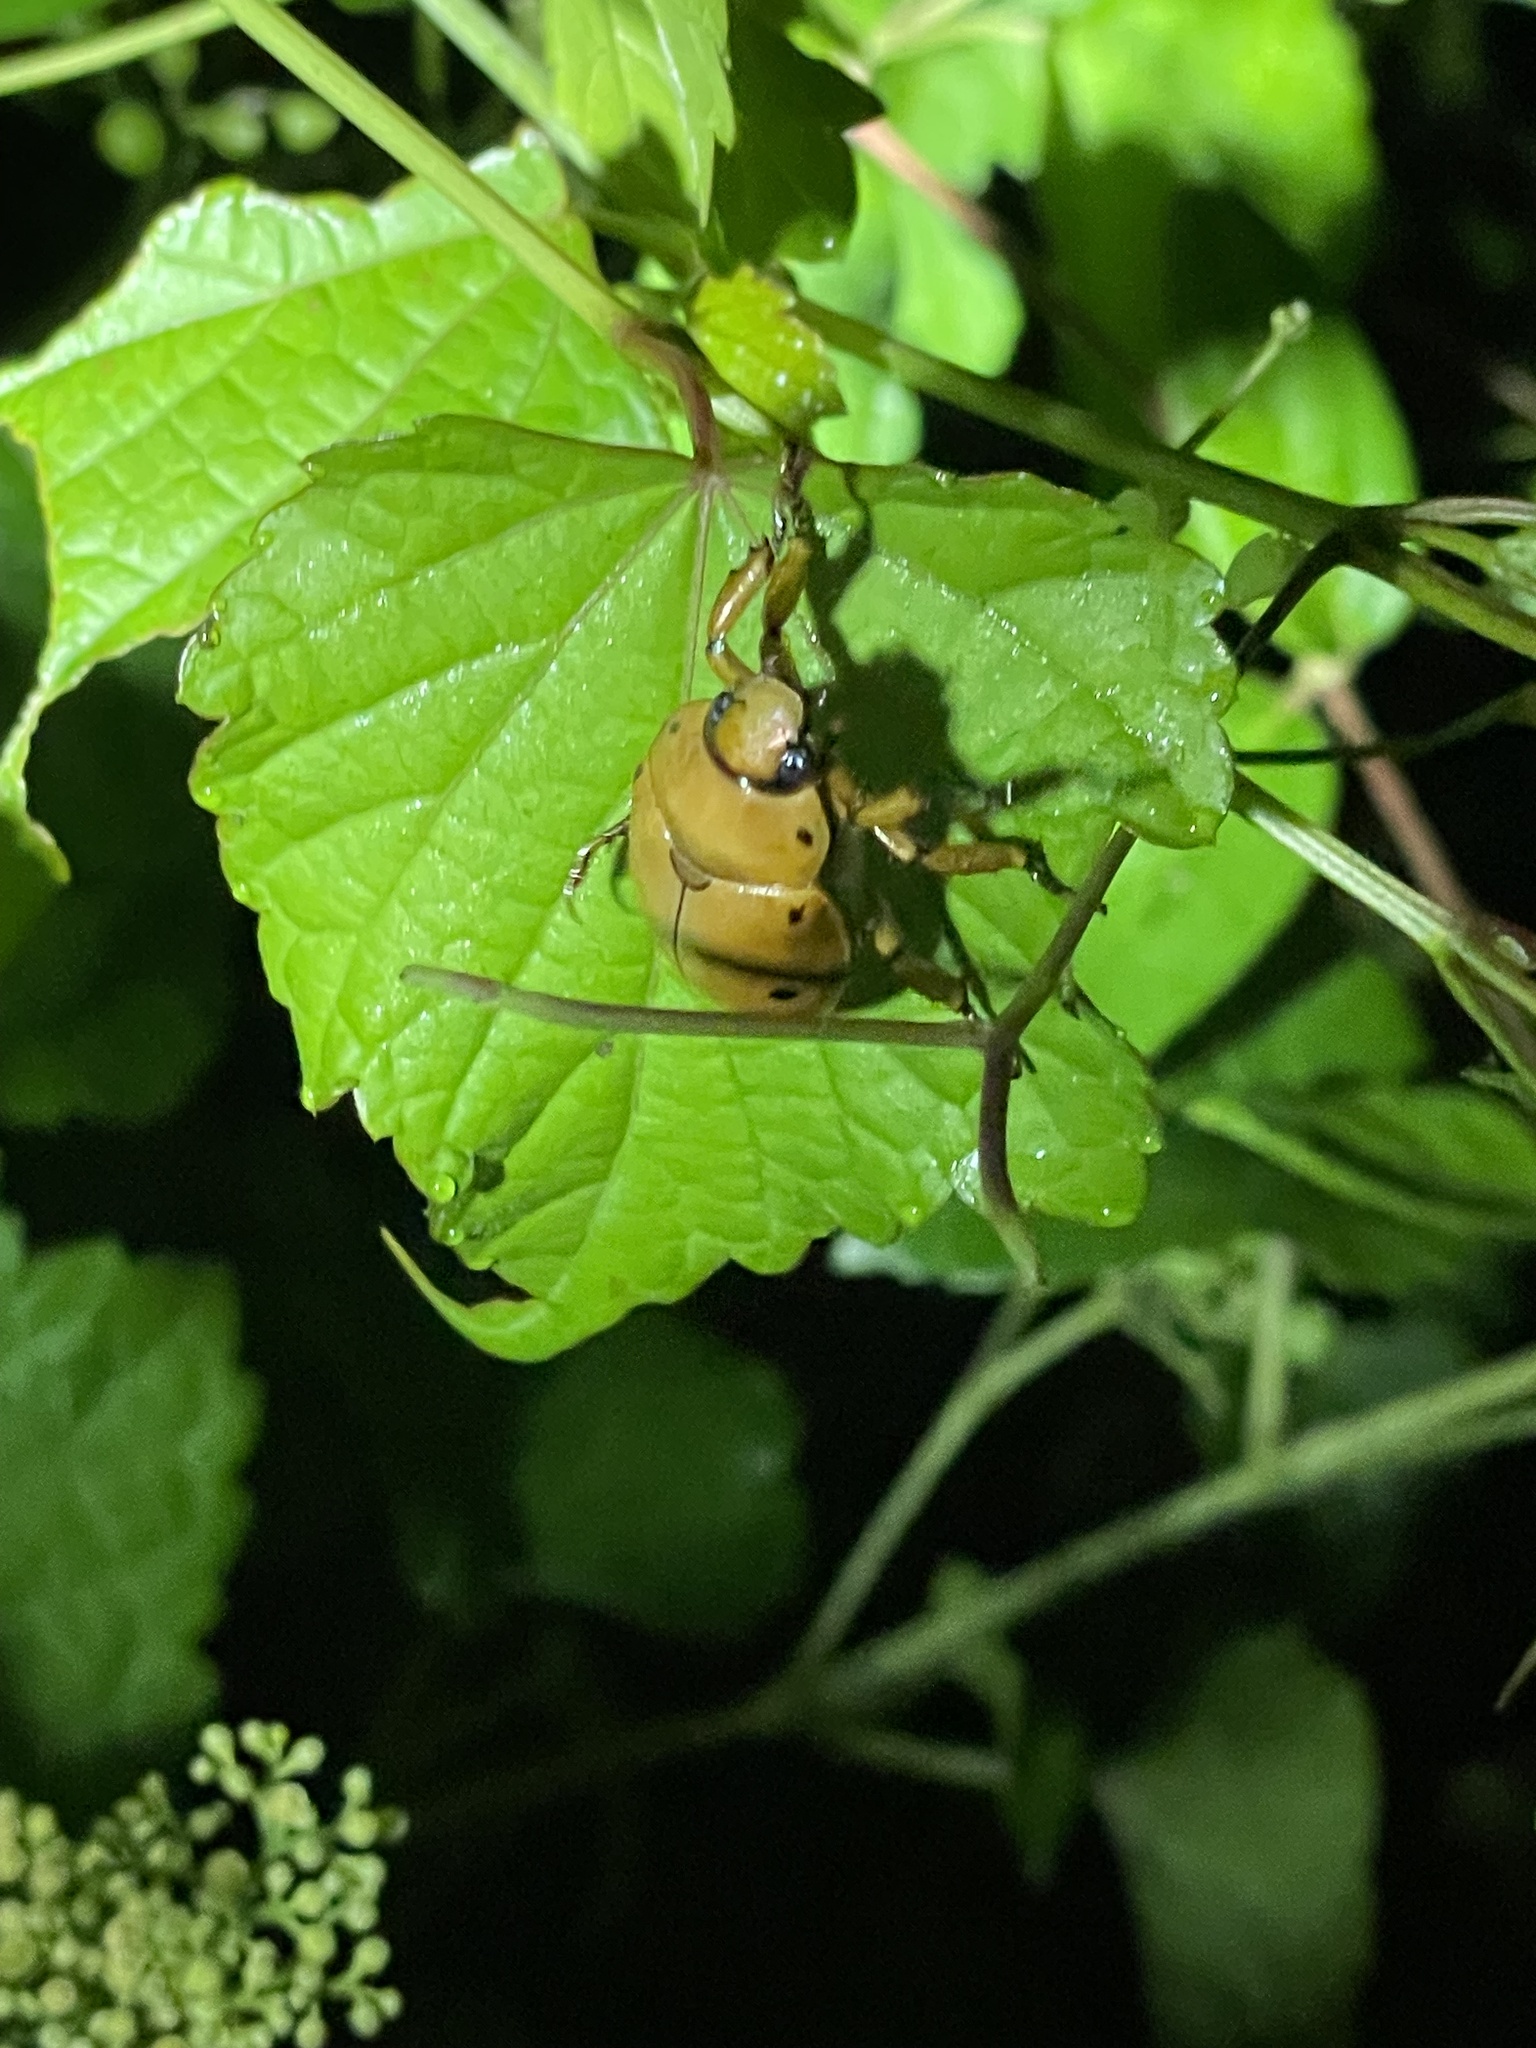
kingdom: Animalia
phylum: Arthropoda
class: Insecta
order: Coleoptera
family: Scarabaeidae
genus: Pelidnota
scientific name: Pelidnota punctata
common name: Grapevine beetle
